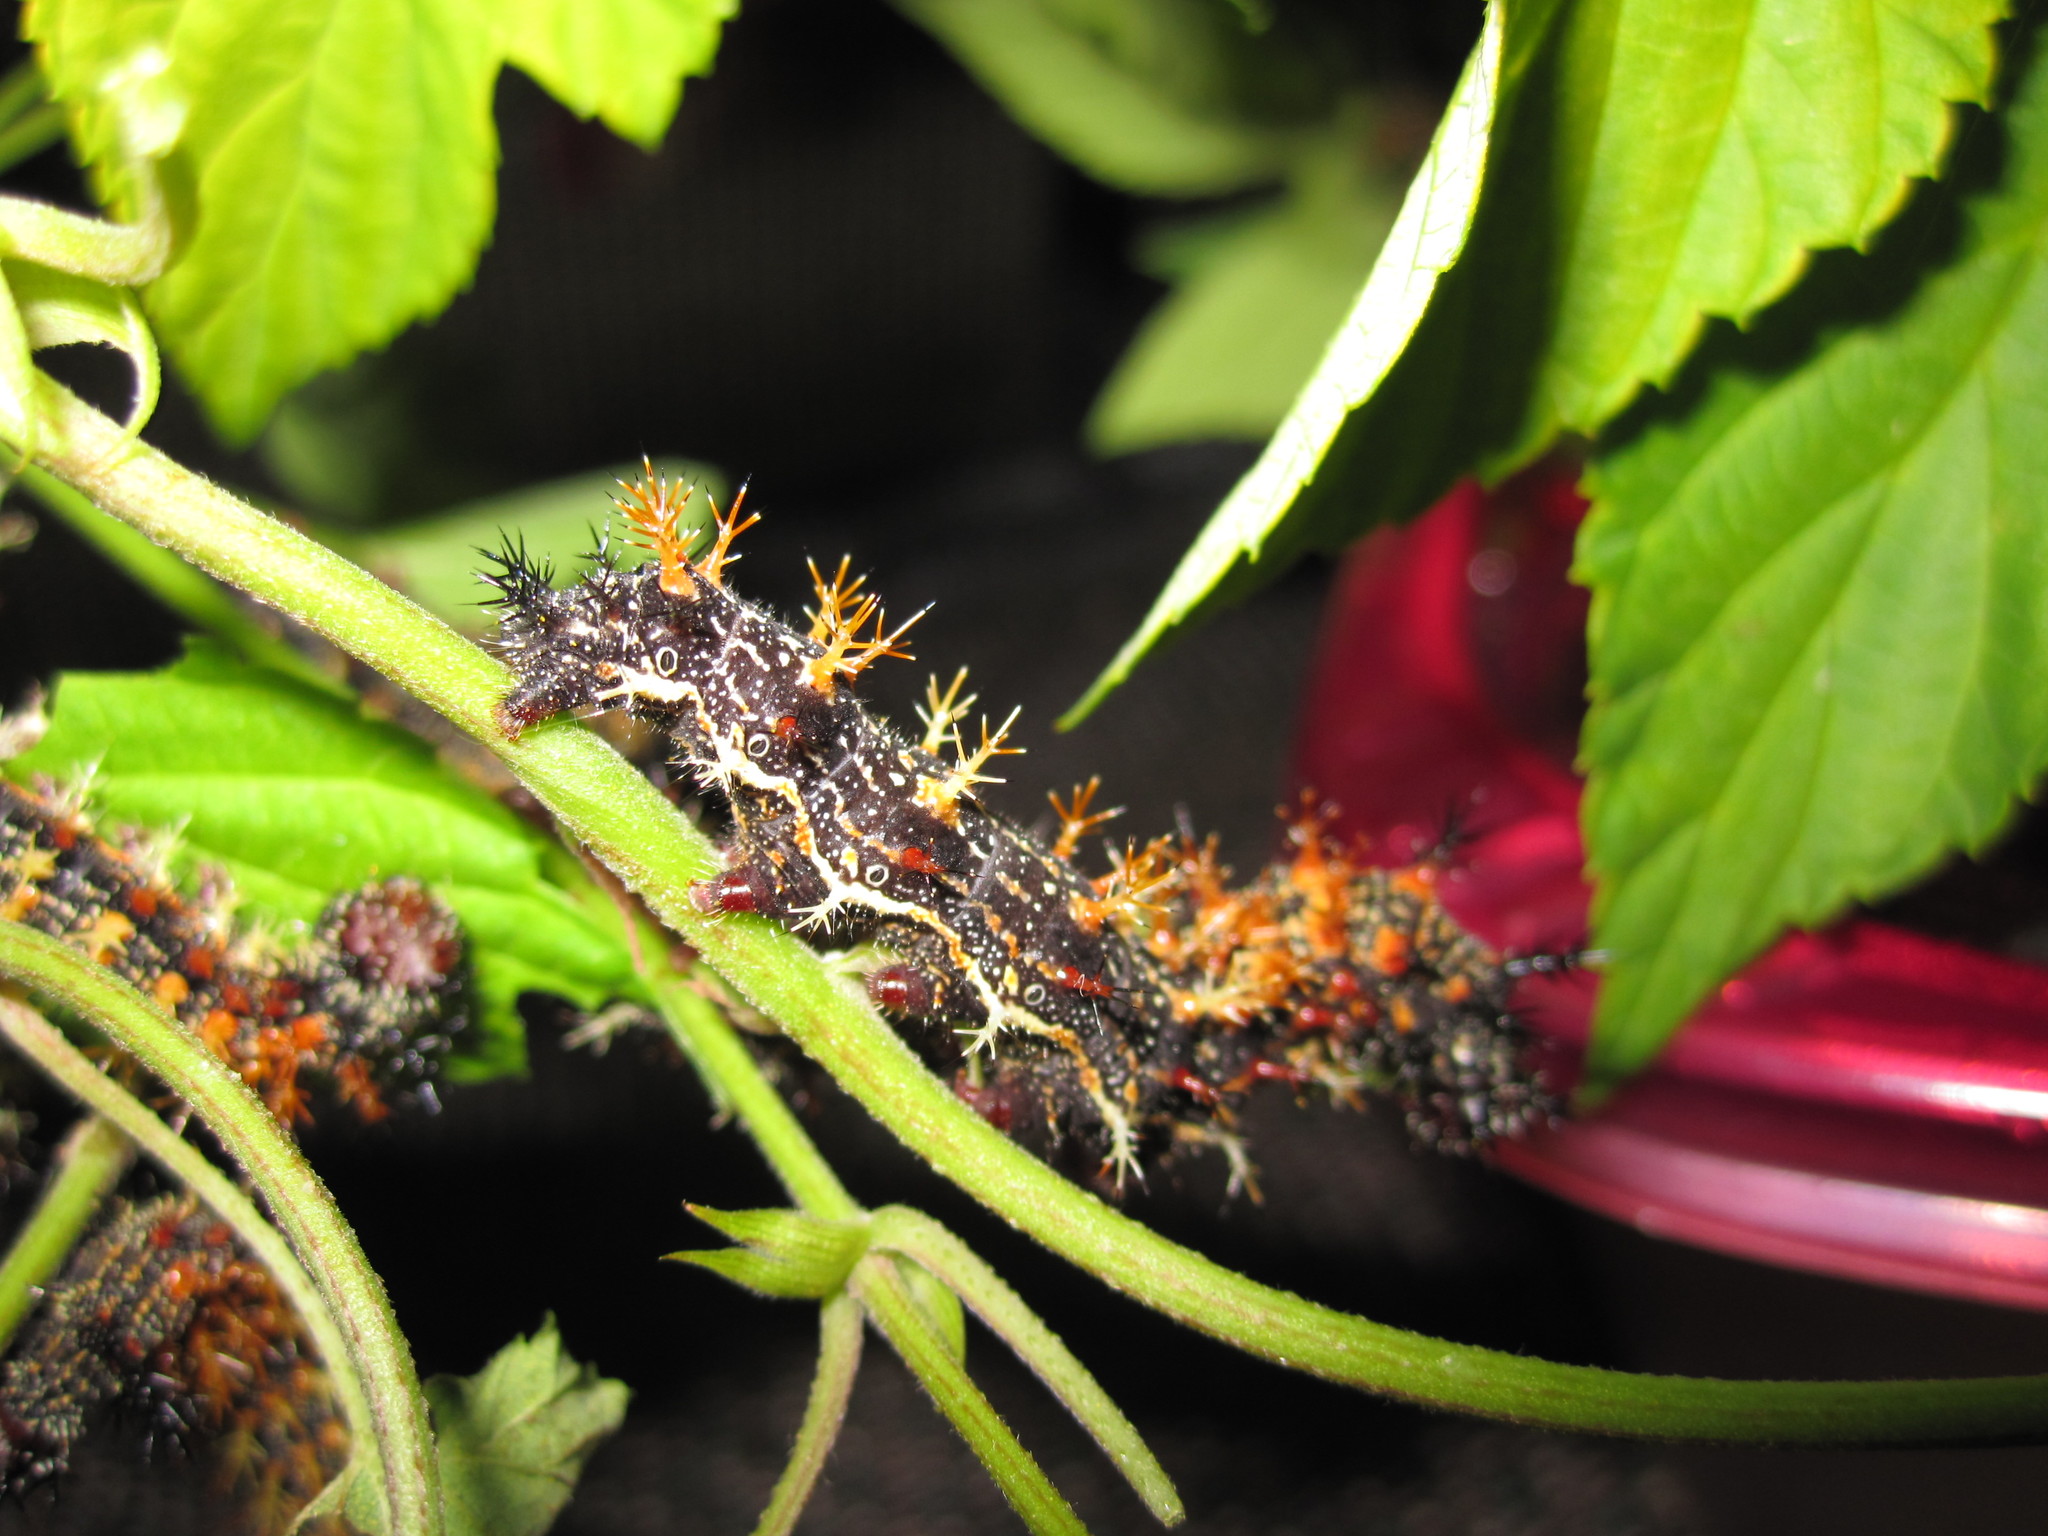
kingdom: Animalia
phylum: Arthropoda
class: Insecta
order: Lepidoptera
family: Nymphalidae
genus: Polygonia
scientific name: Polygonia interrogationis
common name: Question mark
